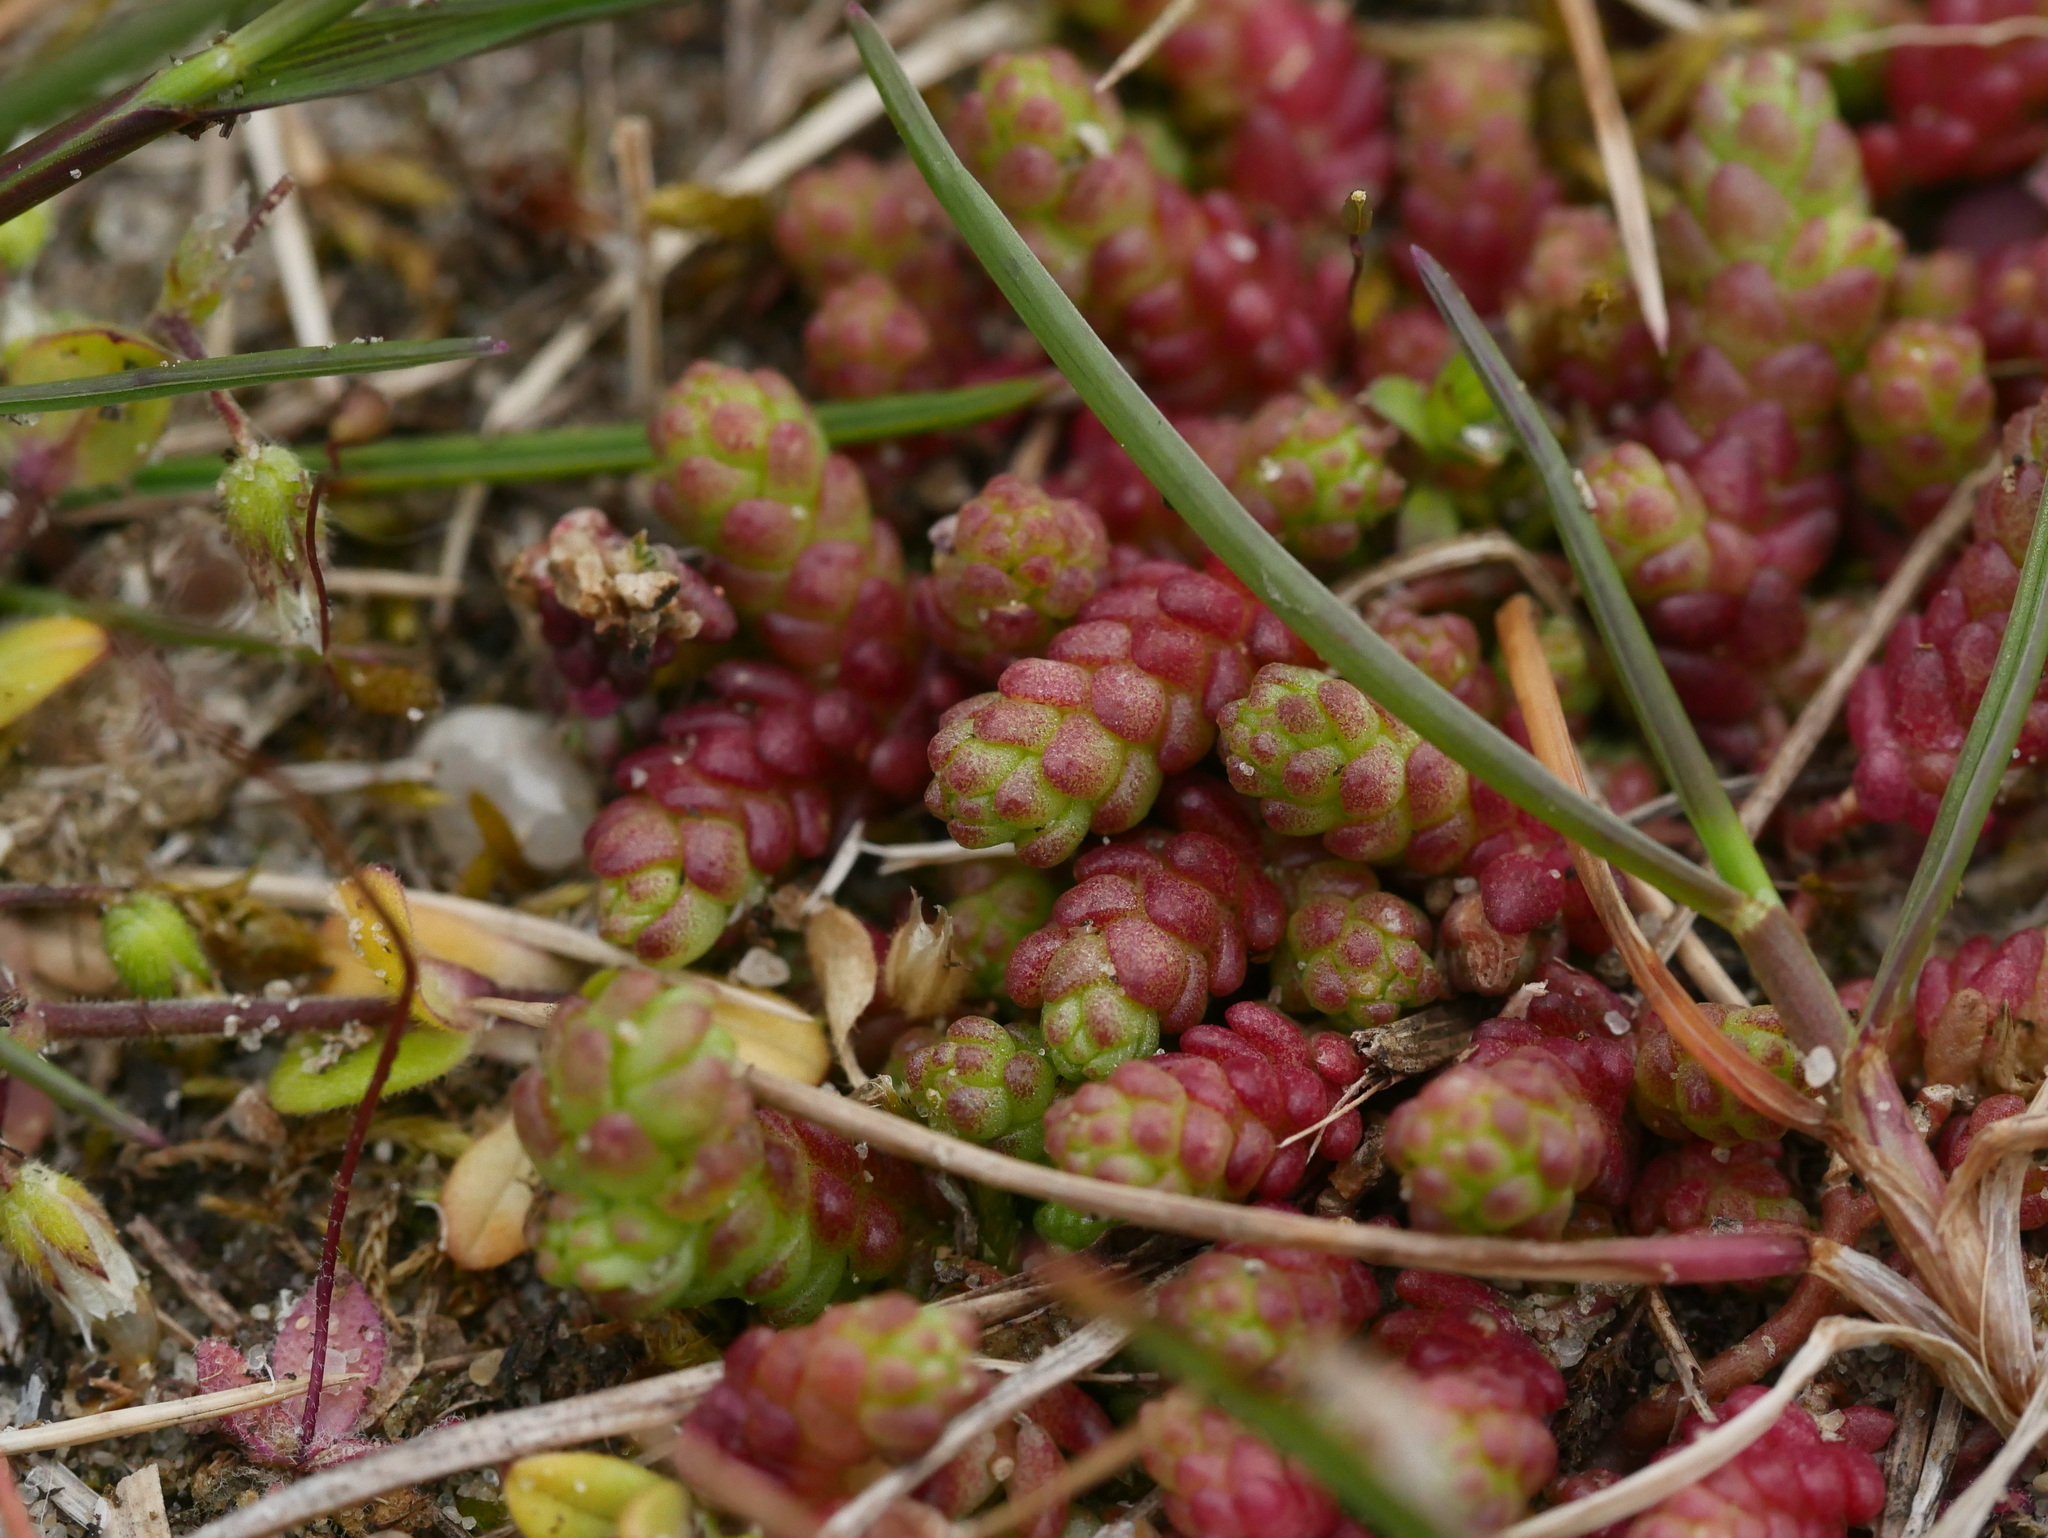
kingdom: Plantae
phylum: Tracheophyta
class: Magnoliopsida
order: Saxifragales
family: Crassulaceae
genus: Sedum
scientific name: Sedum acre
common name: Biting stonecrop
